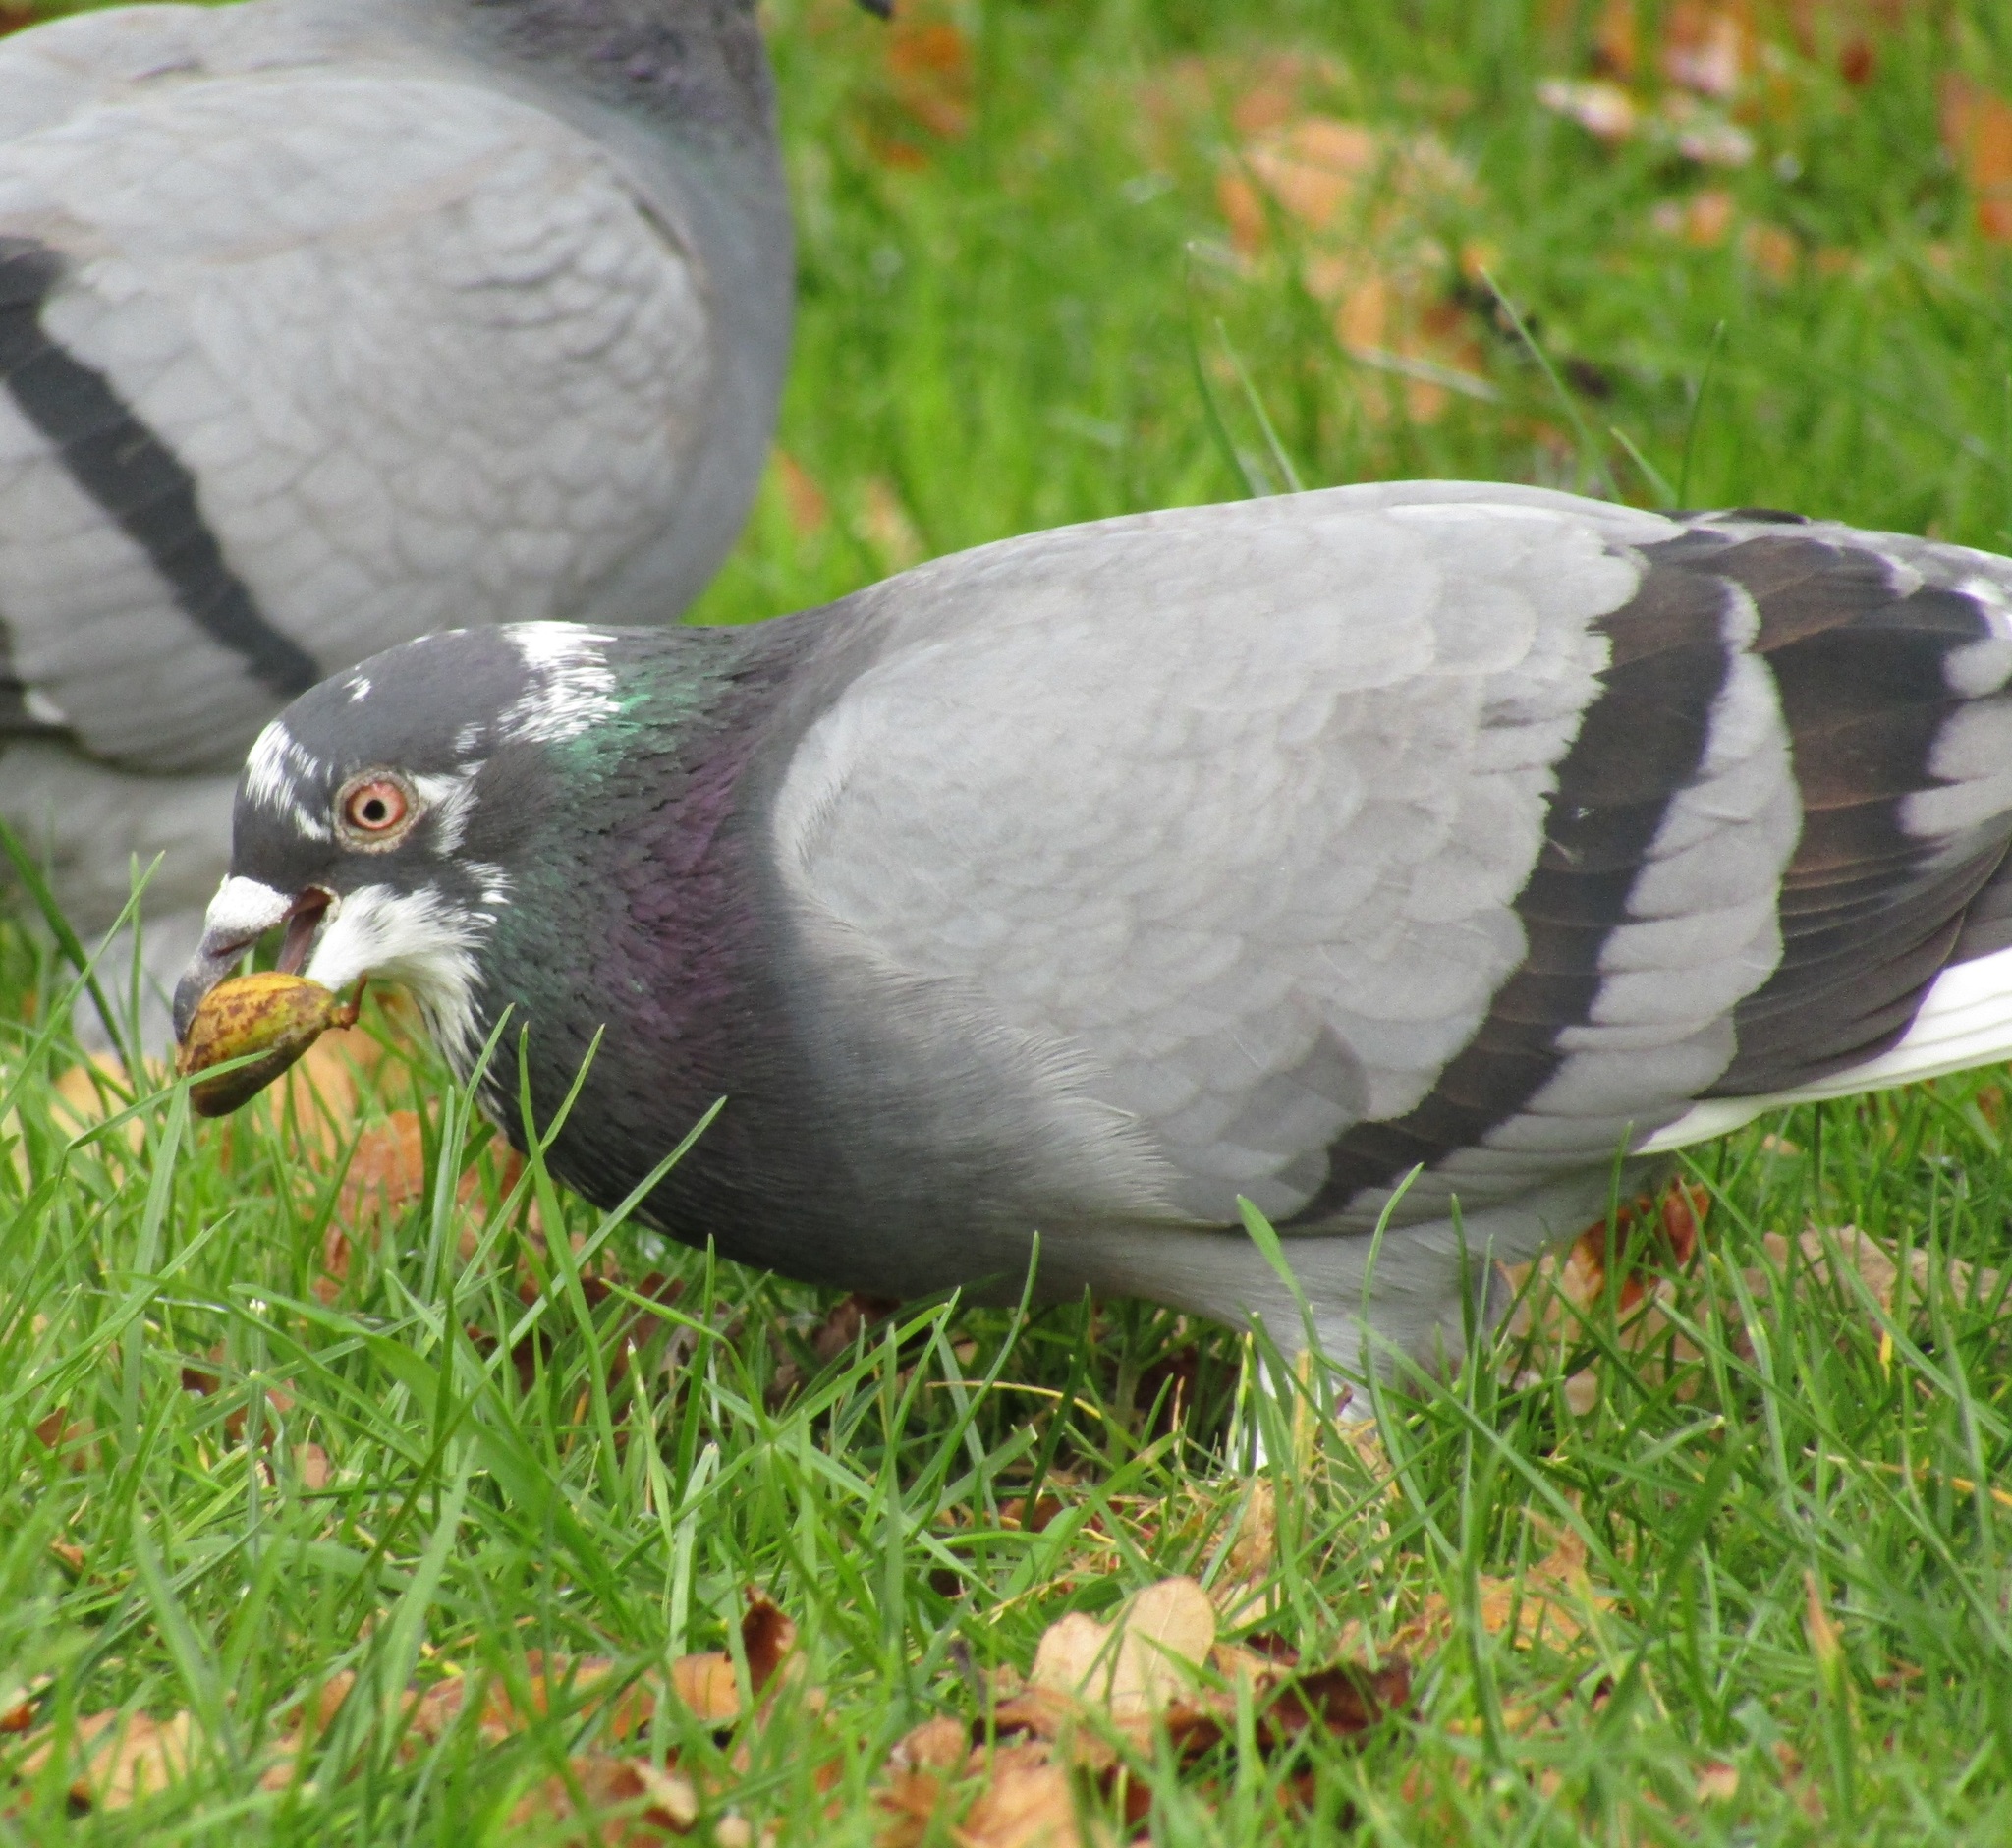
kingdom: Animalia
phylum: Chordata
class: Aves
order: Columbiformes
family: Columbidae
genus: Columba
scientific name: Columba livia
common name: Rock pigeon
